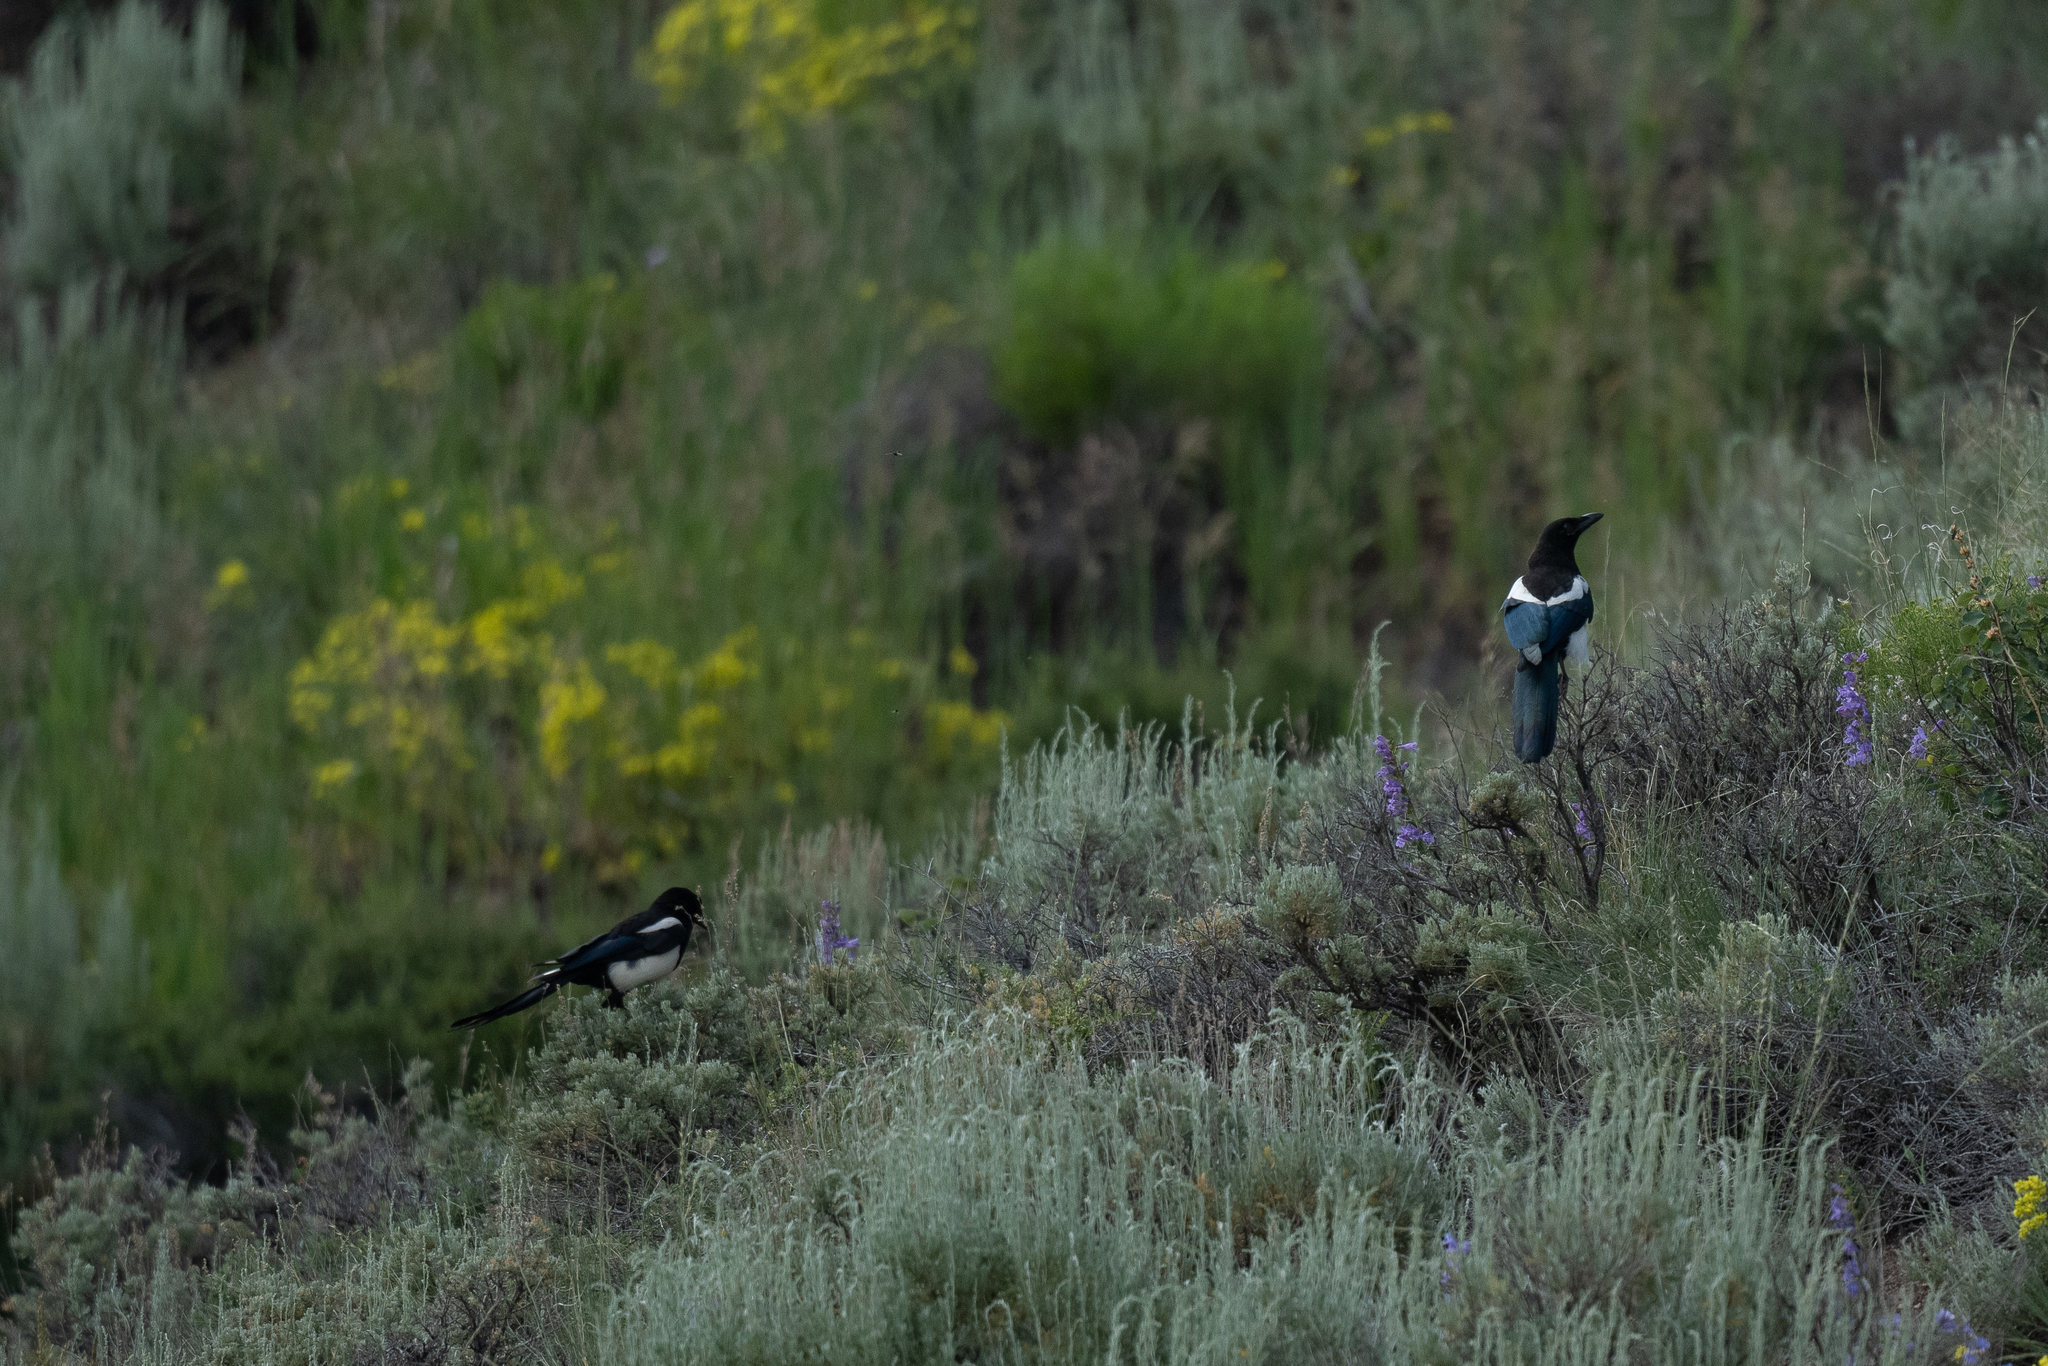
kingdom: Animalia
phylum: Chordata
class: Aves
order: Passeriformes
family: Corvidae
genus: Pica
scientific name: Pica hudsonia
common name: Black-billed magpie
